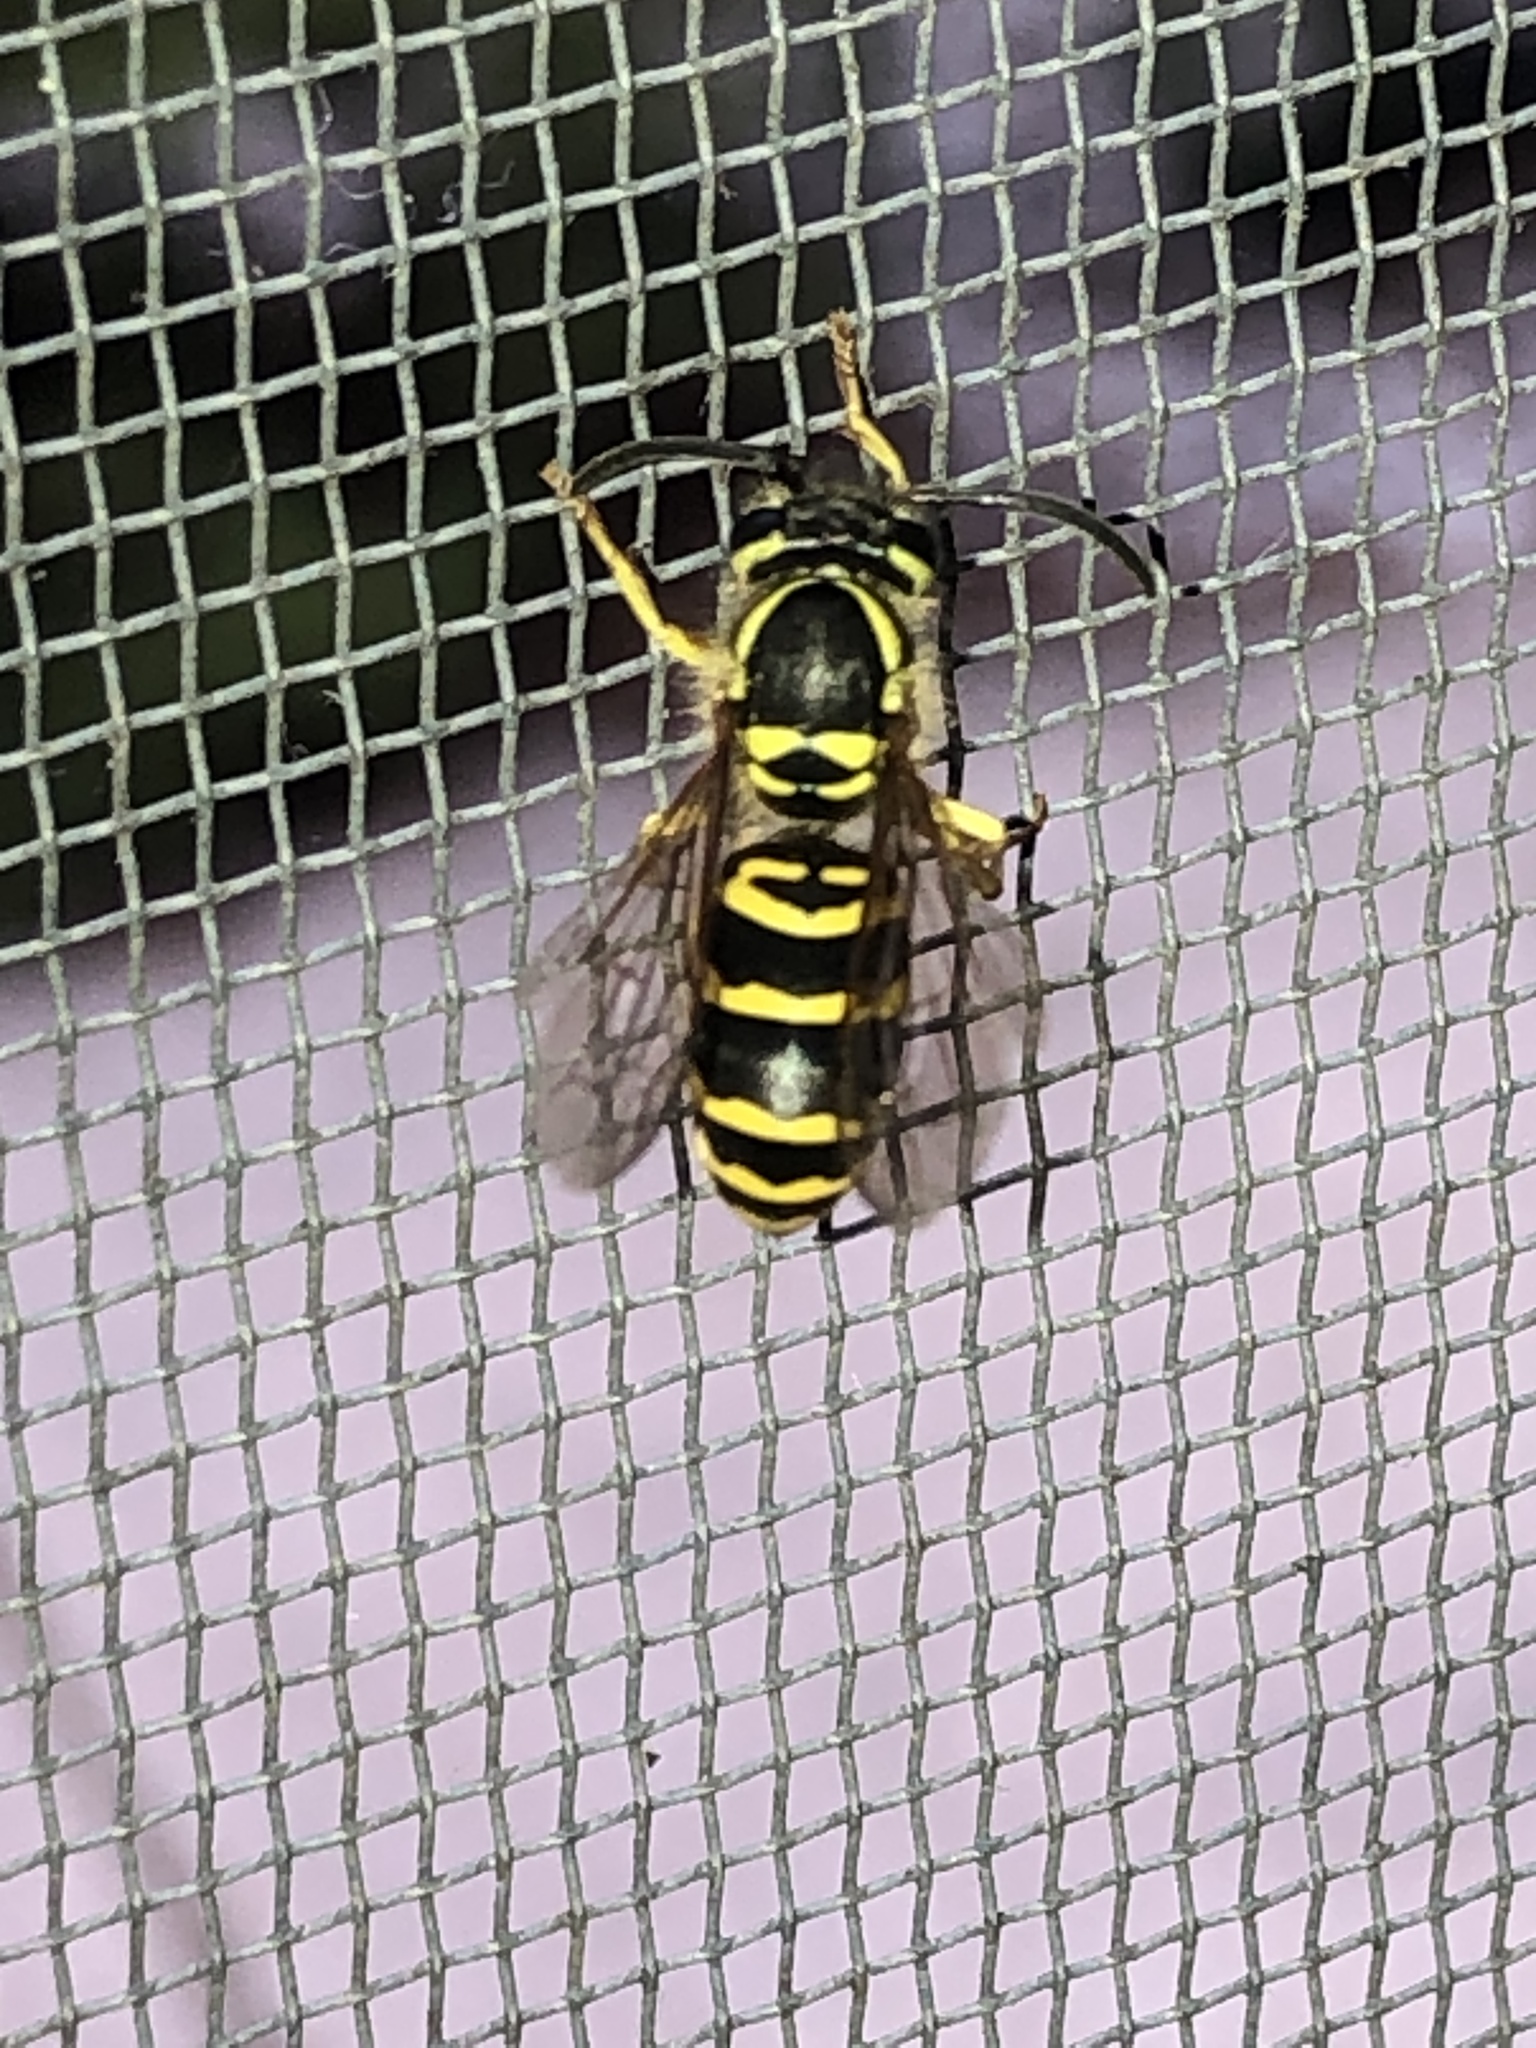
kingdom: Animalia
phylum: Arthropoda
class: Insecta
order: Hymenoptera
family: Vespidae
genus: Vespula
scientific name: Vespula maculifrons
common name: Eastern yellowjacket
